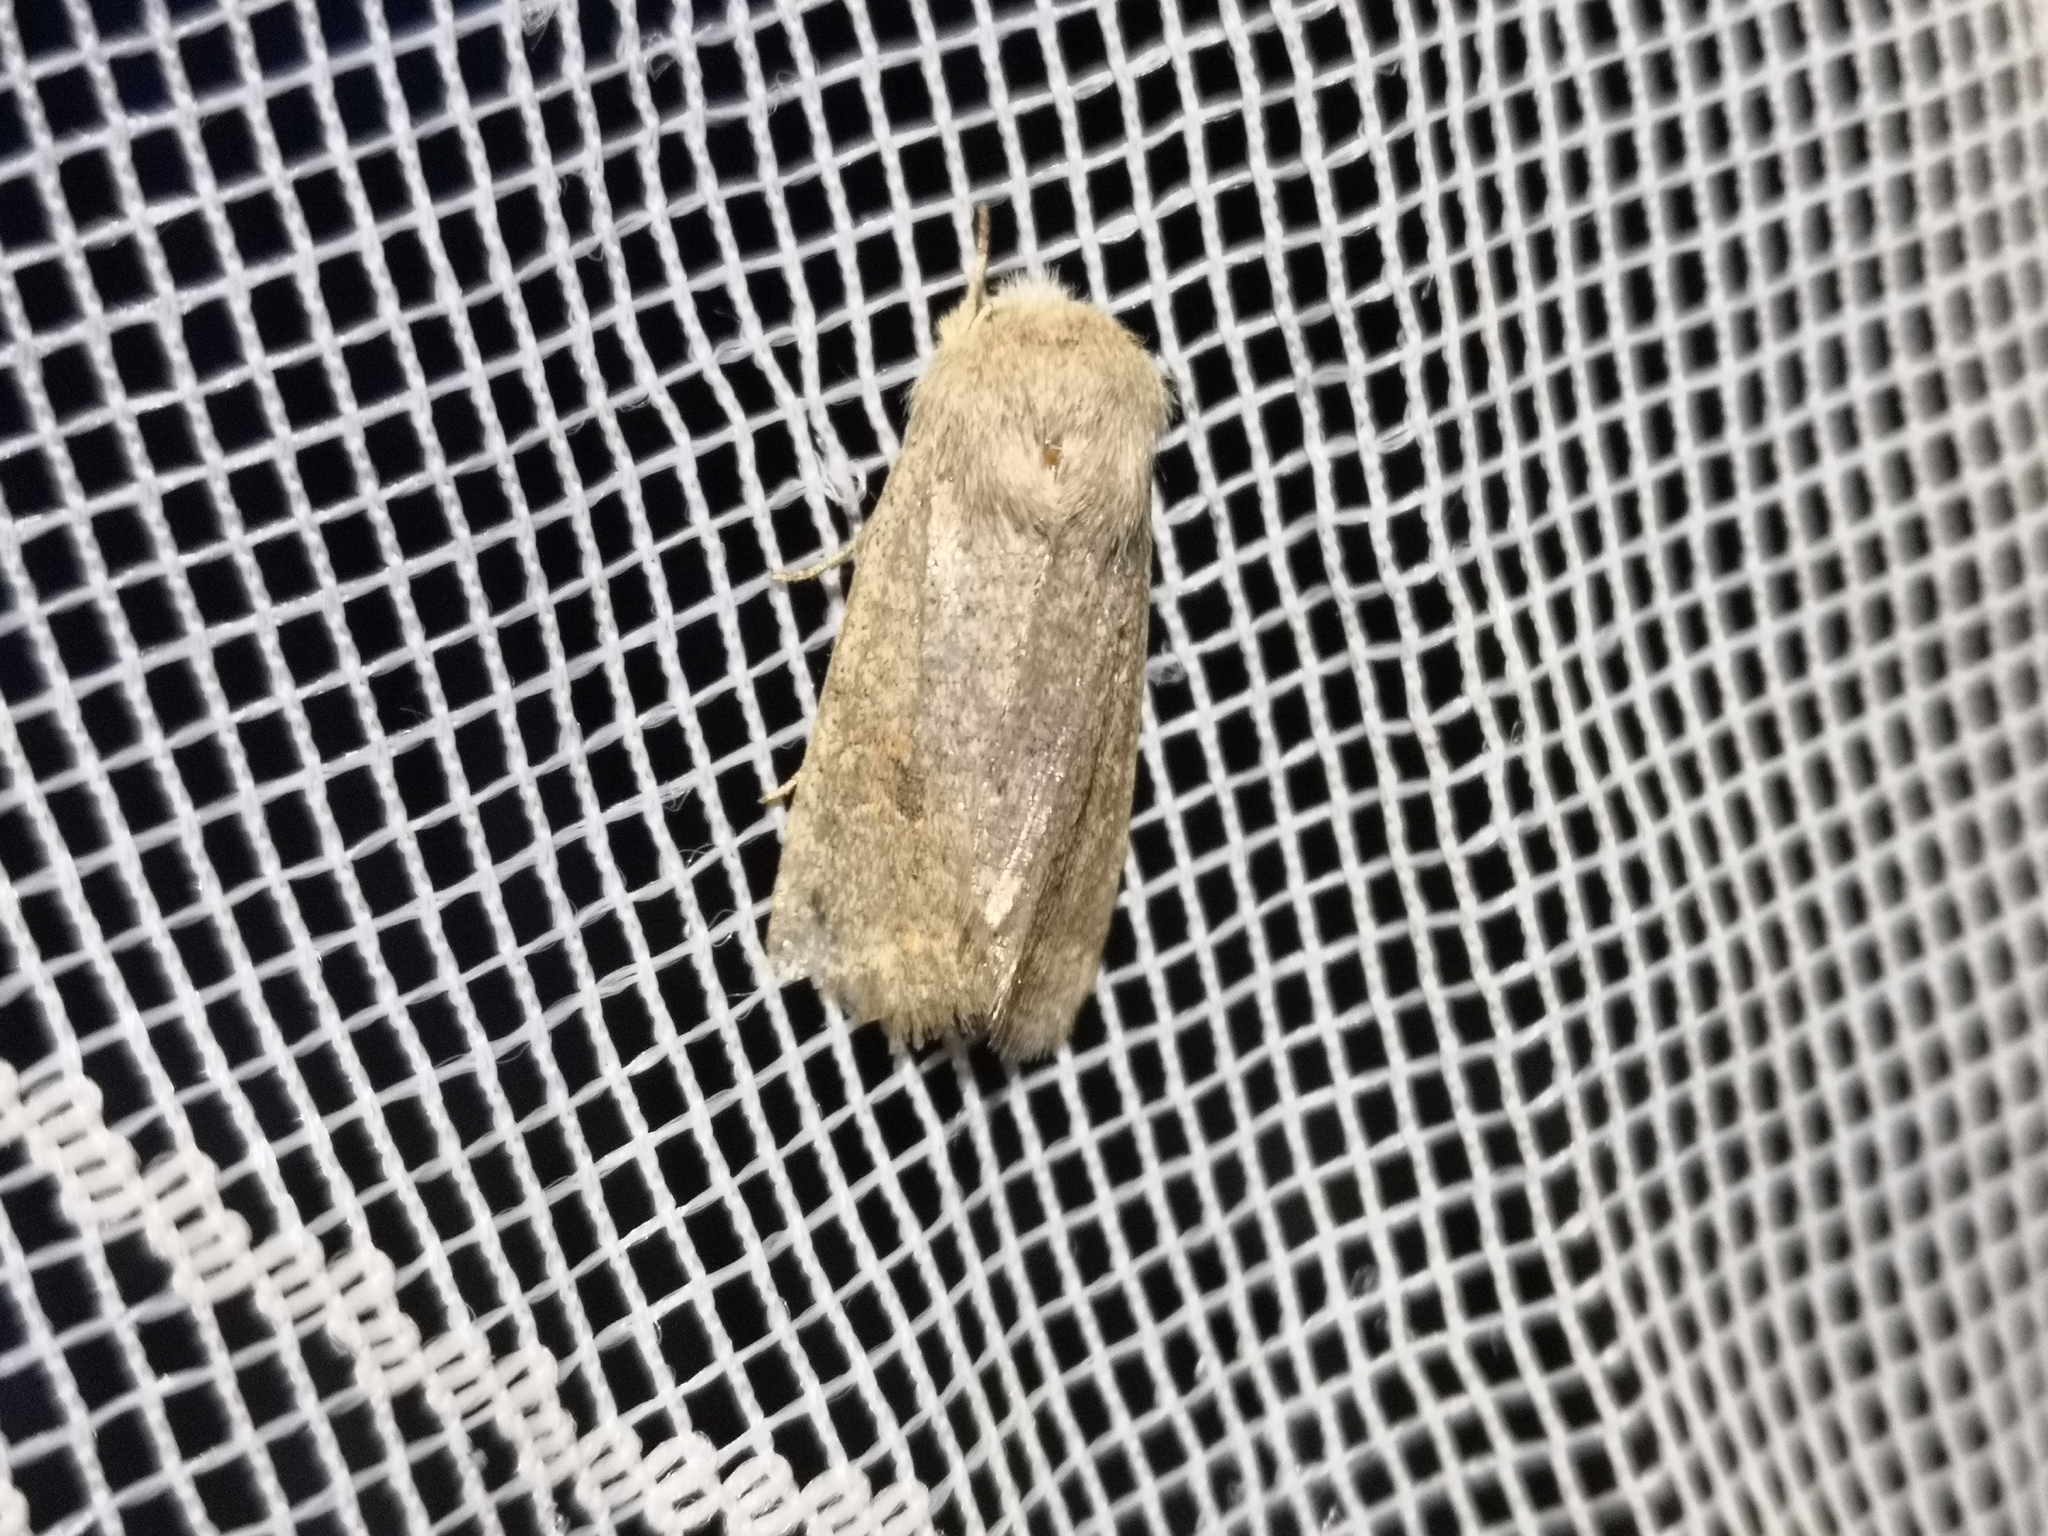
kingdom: Animalia
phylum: Arthropoda
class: Insecta
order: Lepidoptera
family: Noctuidae
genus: Orthosia
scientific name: Orthosia cruda
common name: Small quaker
